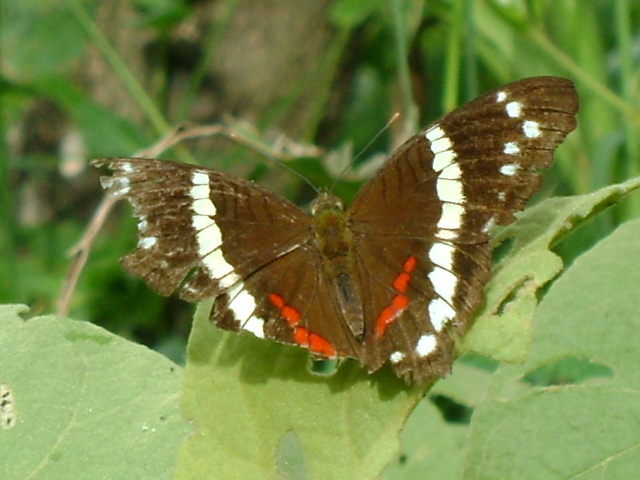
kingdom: Animalia
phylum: Arthropoda
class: Insecta
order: Lepidoptera
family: Nymphalidae
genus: Anartia
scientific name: Anartia fatima
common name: Banded peacock
